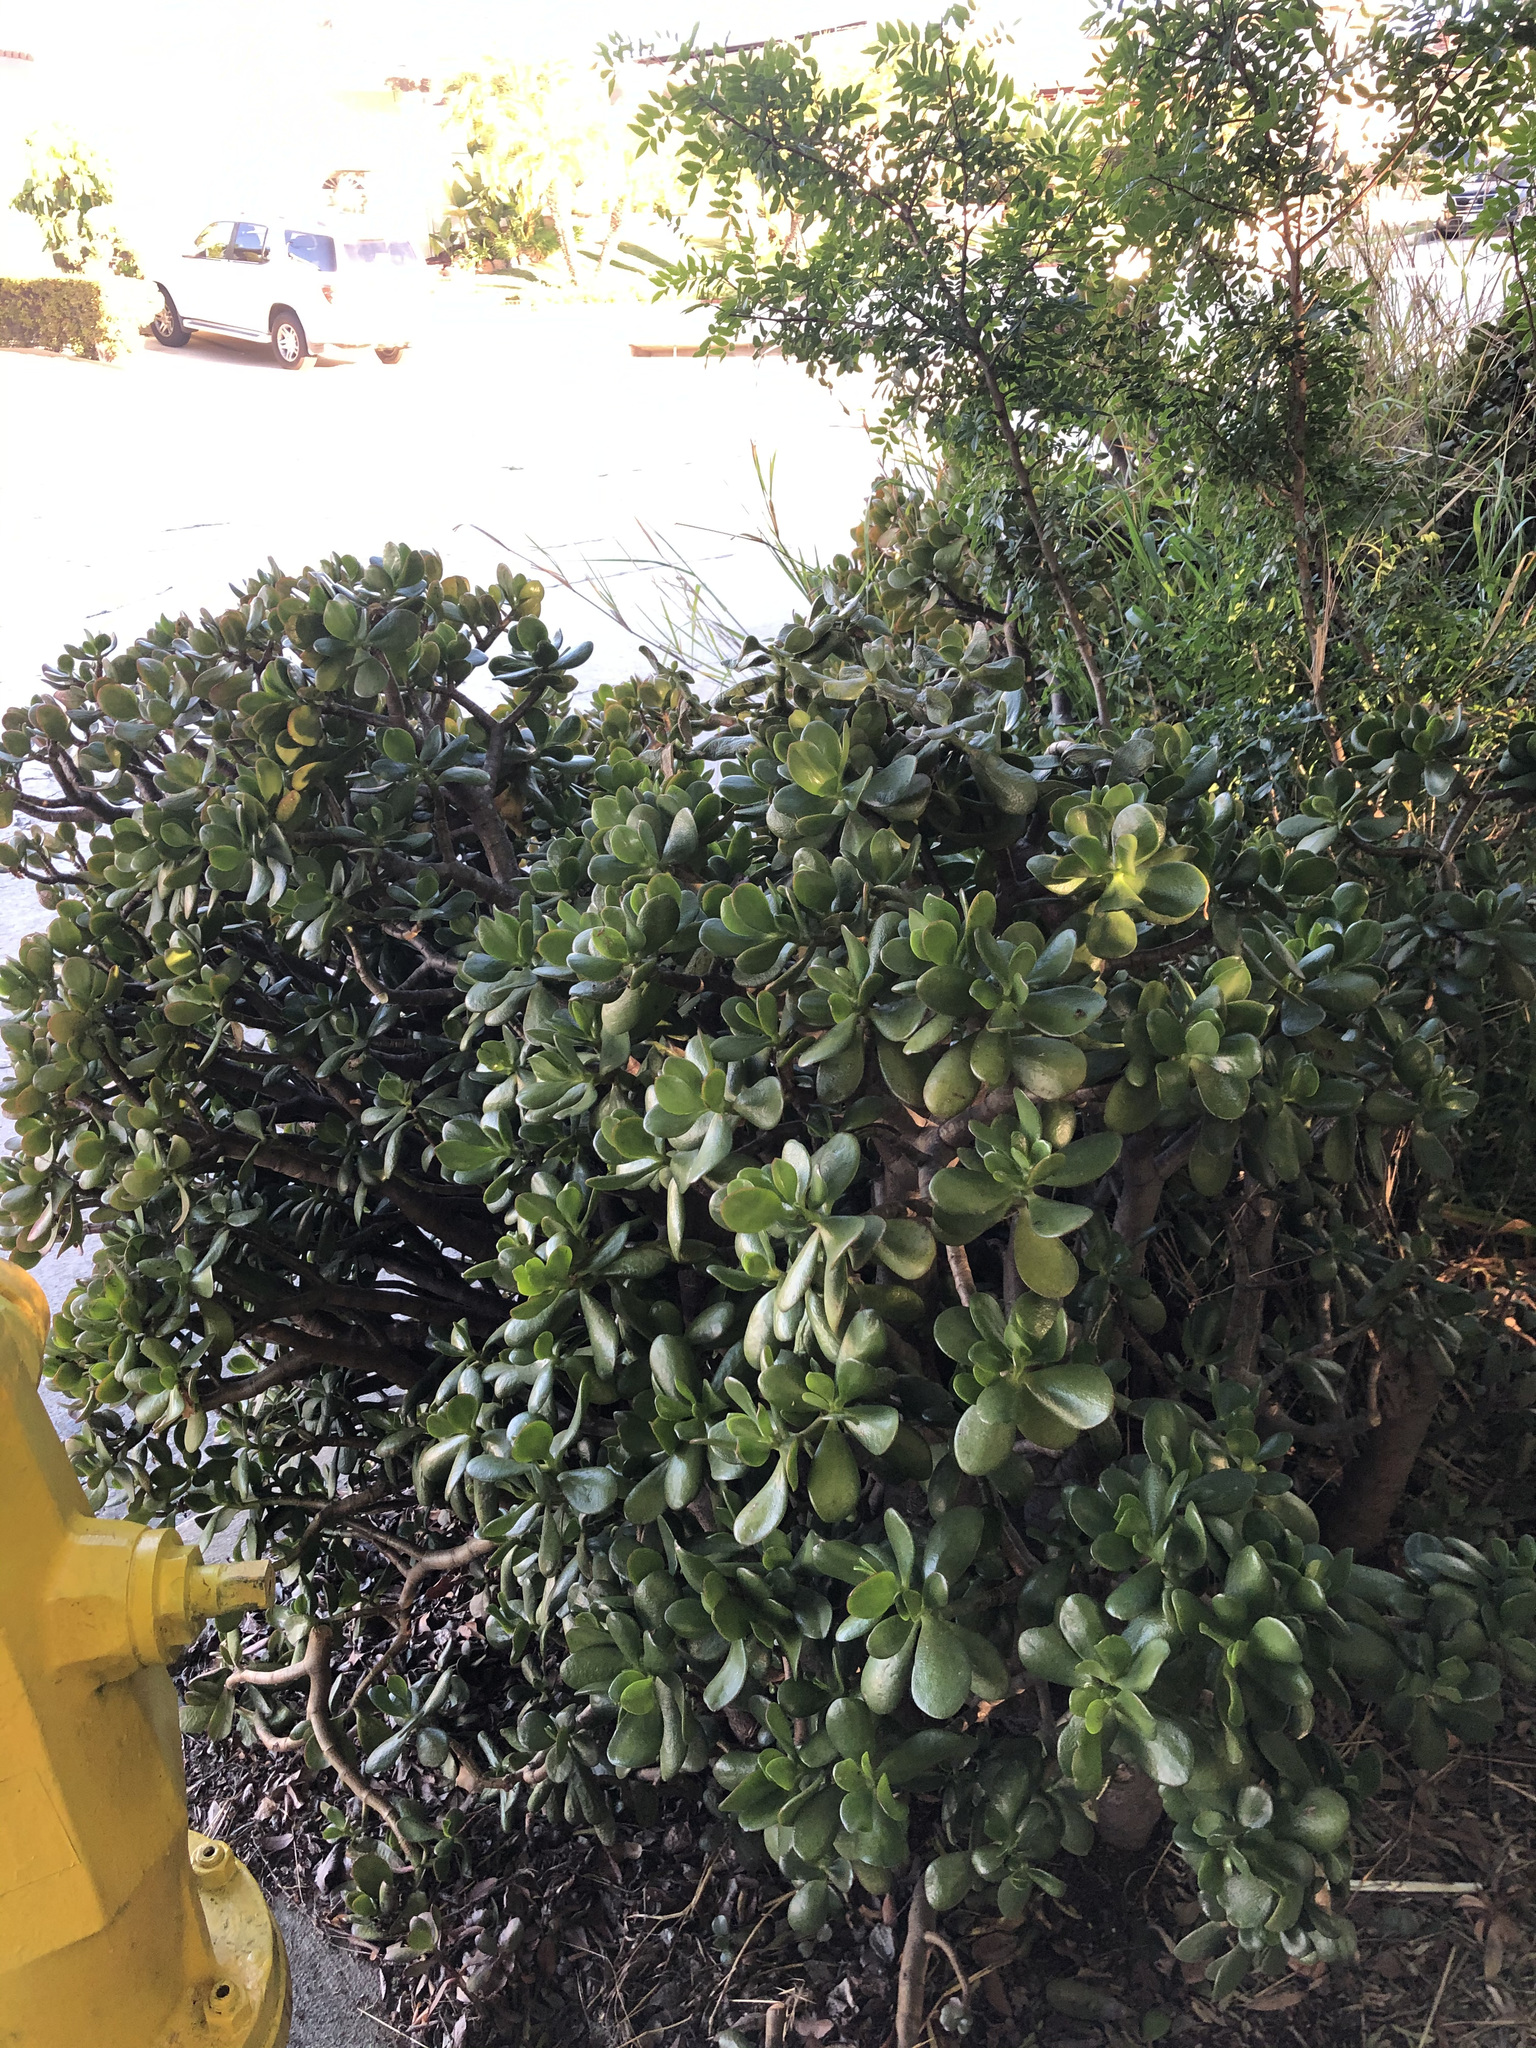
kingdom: Plantae
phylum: Tracheophyta
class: Magnoliopsida
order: Saxifragales
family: Crassulaceae
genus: Crassula
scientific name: Crassula ovata
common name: Jade plant
